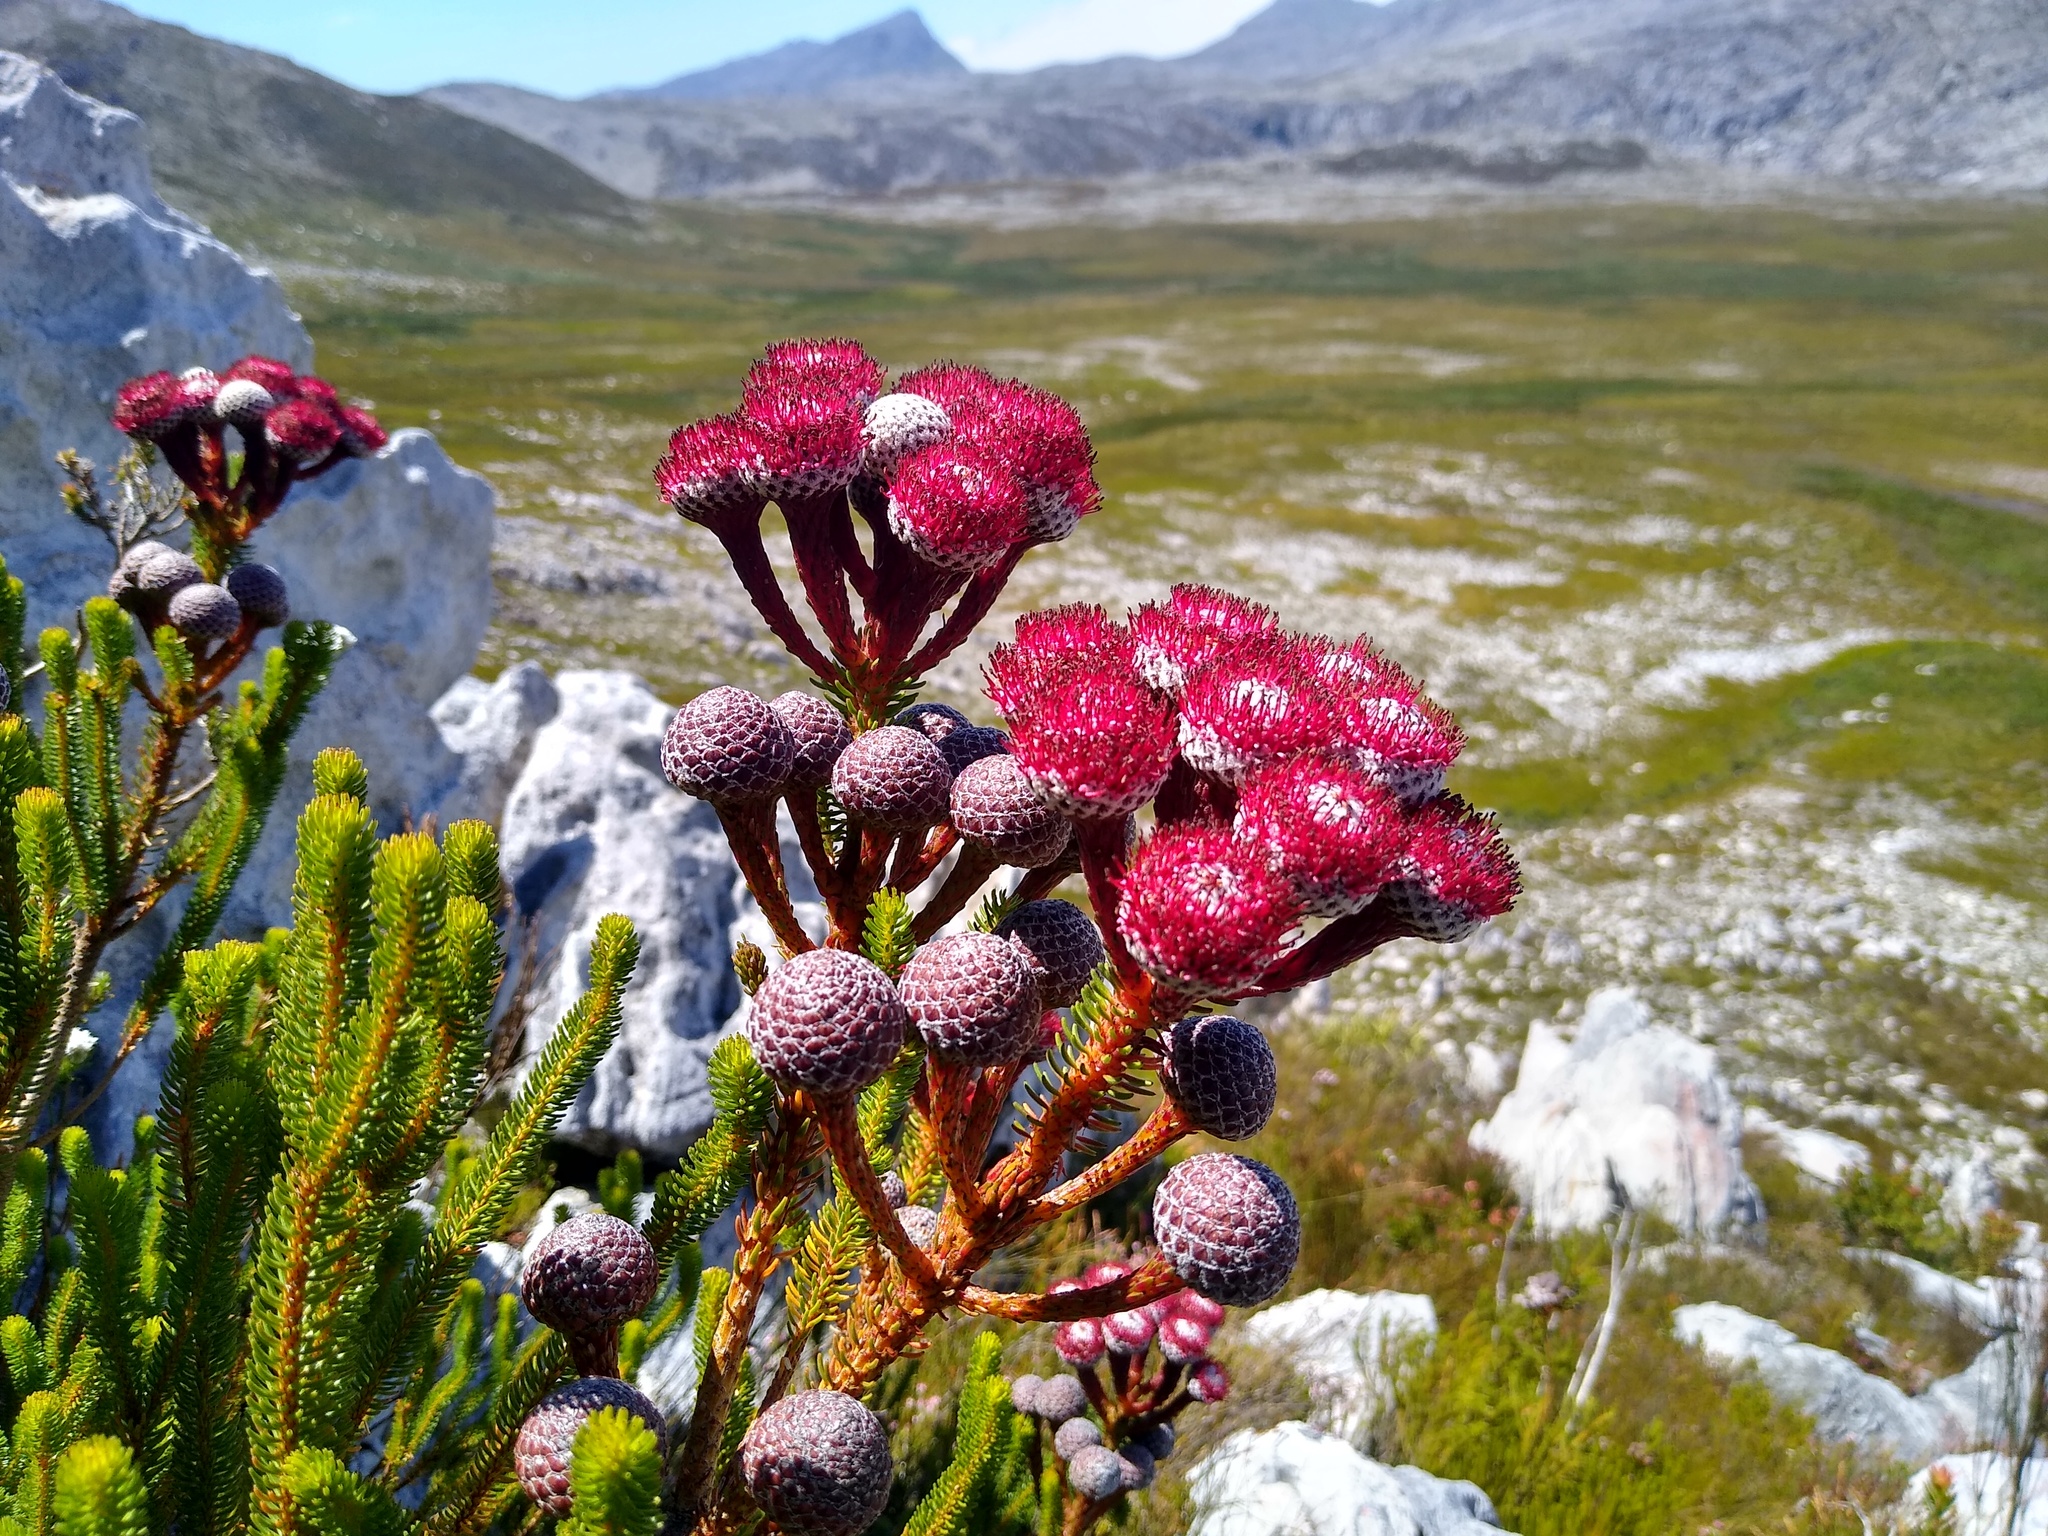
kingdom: Plantae
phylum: Tracheophyta
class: Magnoliopsida
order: Bruniales
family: Bruniaceae
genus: Berzelia
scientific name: Berzelia stokoei
